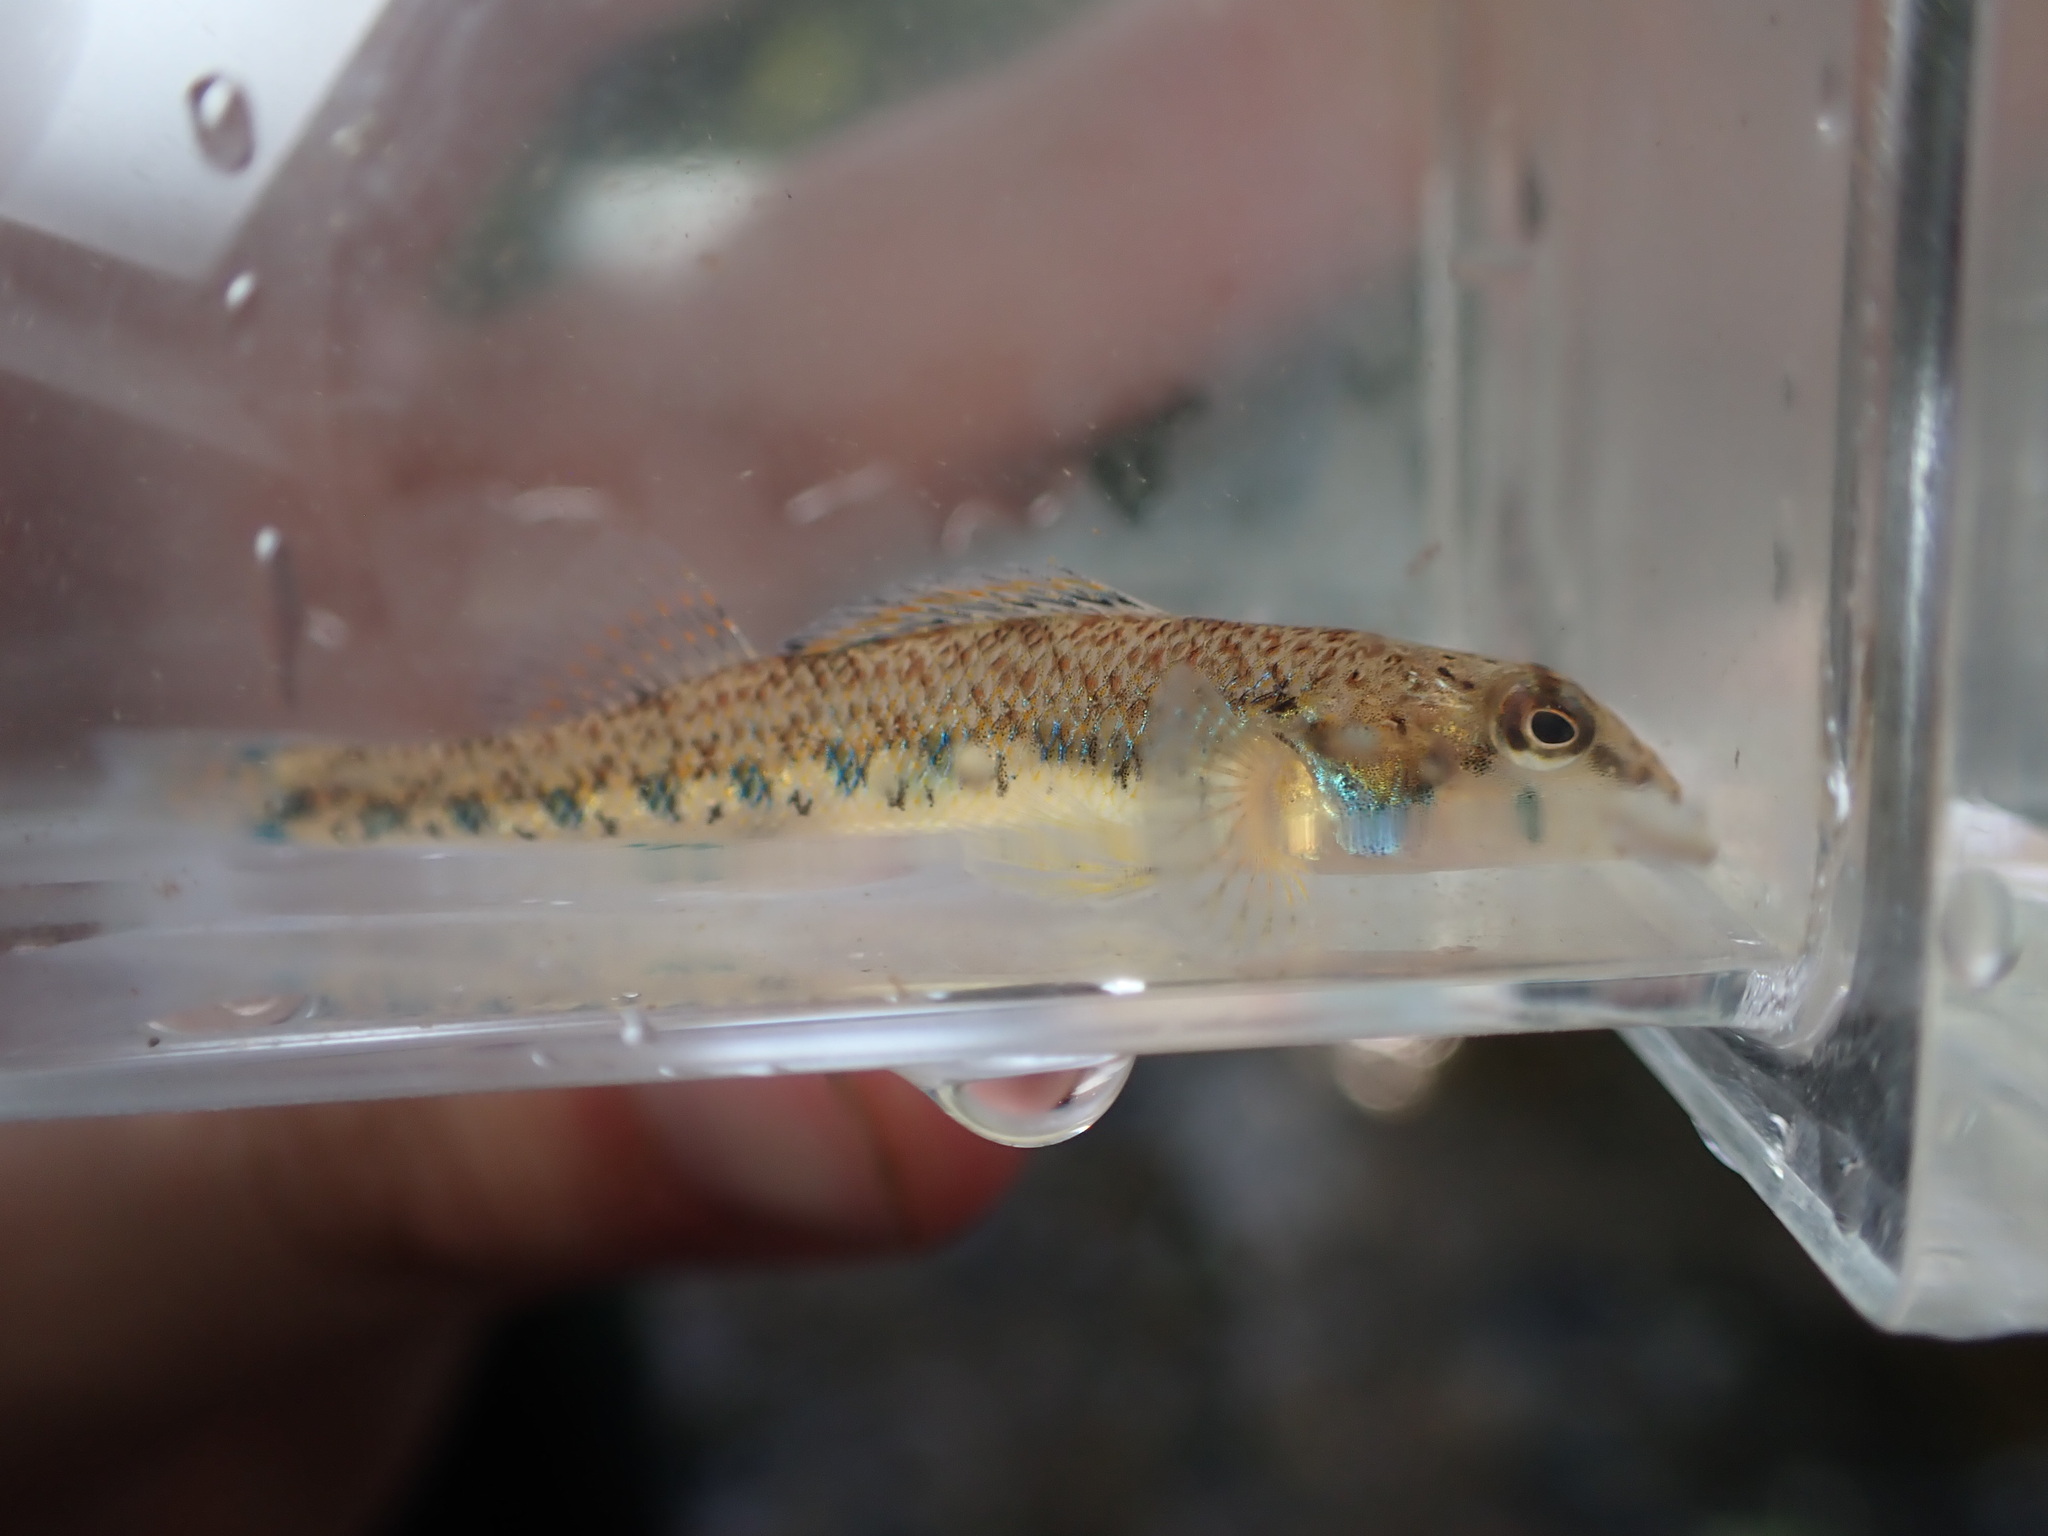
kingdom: Animalia
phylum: Chordata
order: Perciformes
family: Percidae
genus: Etheostoma
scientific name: Etheostoma jessiae
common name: Blueside darter
